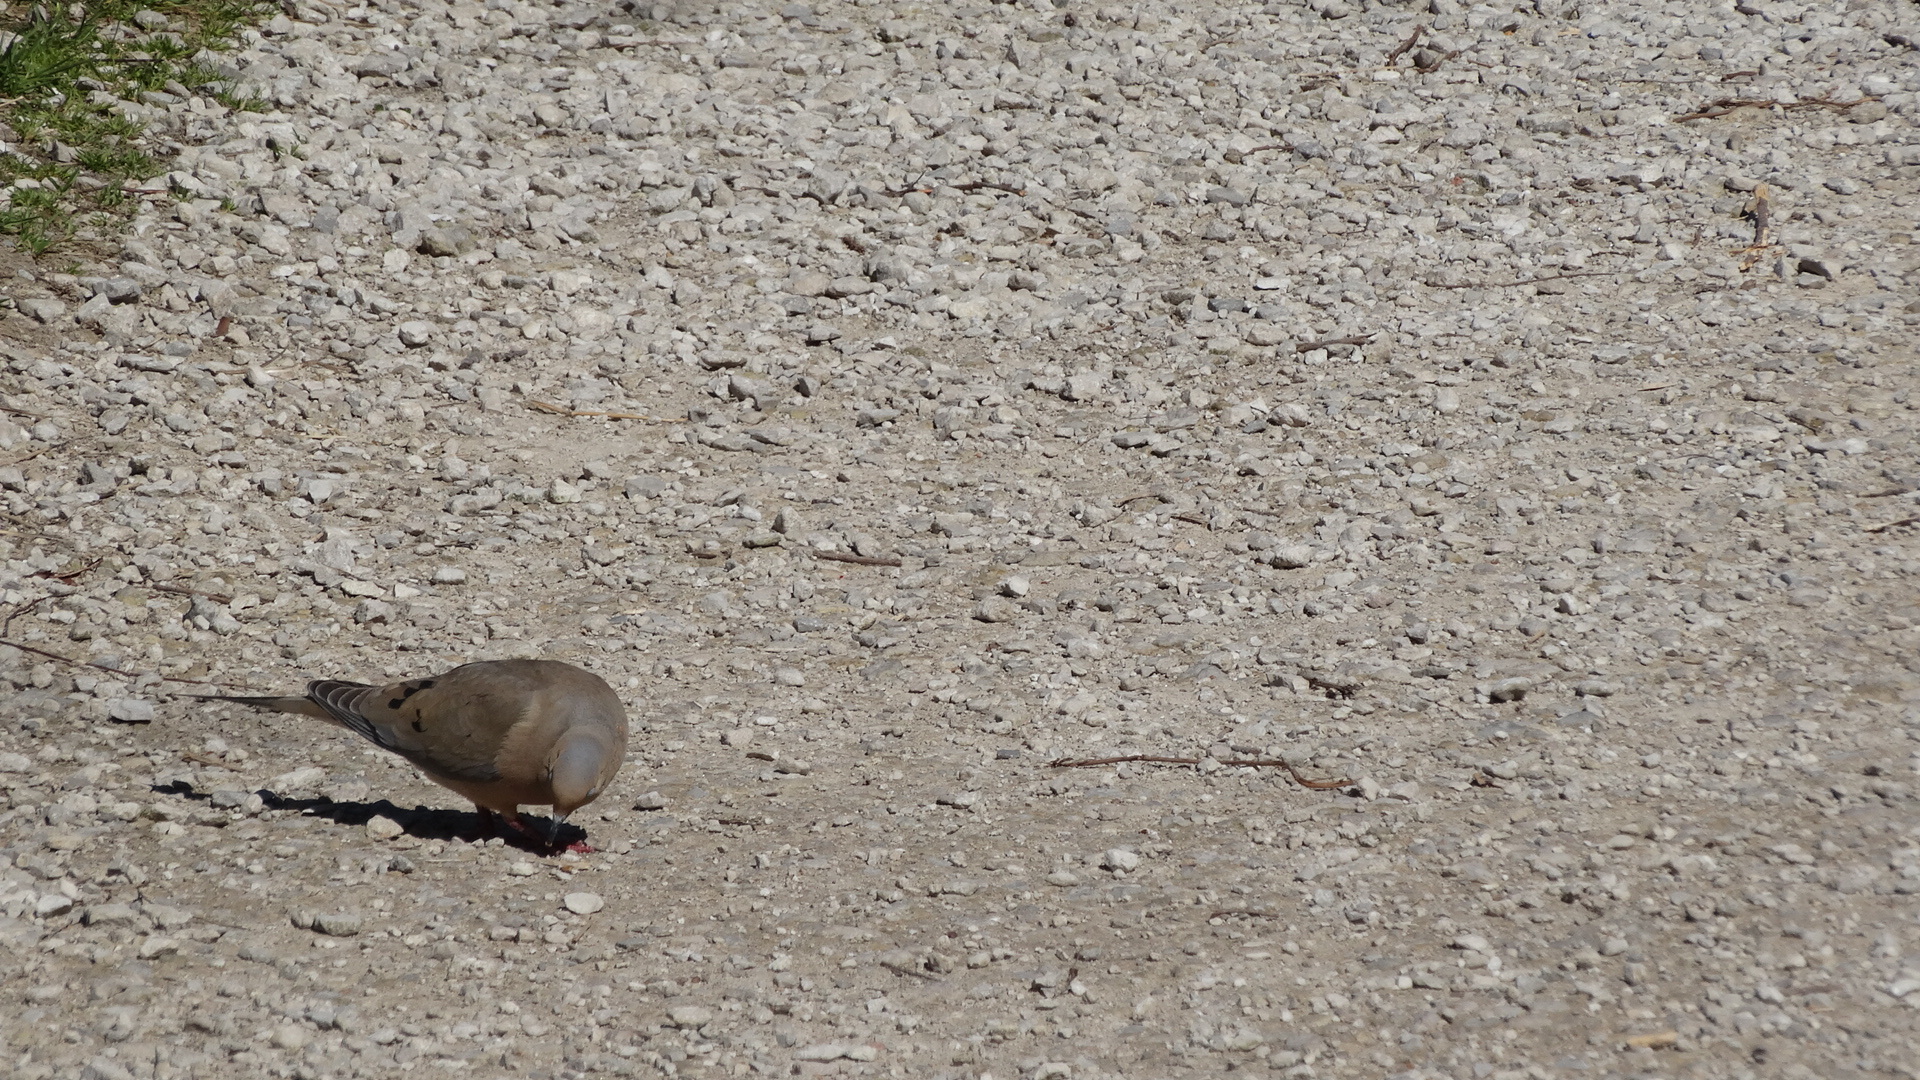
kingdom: Animalia
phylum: Chordata
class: Aves
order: Columbiformes
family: Columbidae
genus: Zenaida
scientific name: Zenaida macroura
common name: Mourning dove
